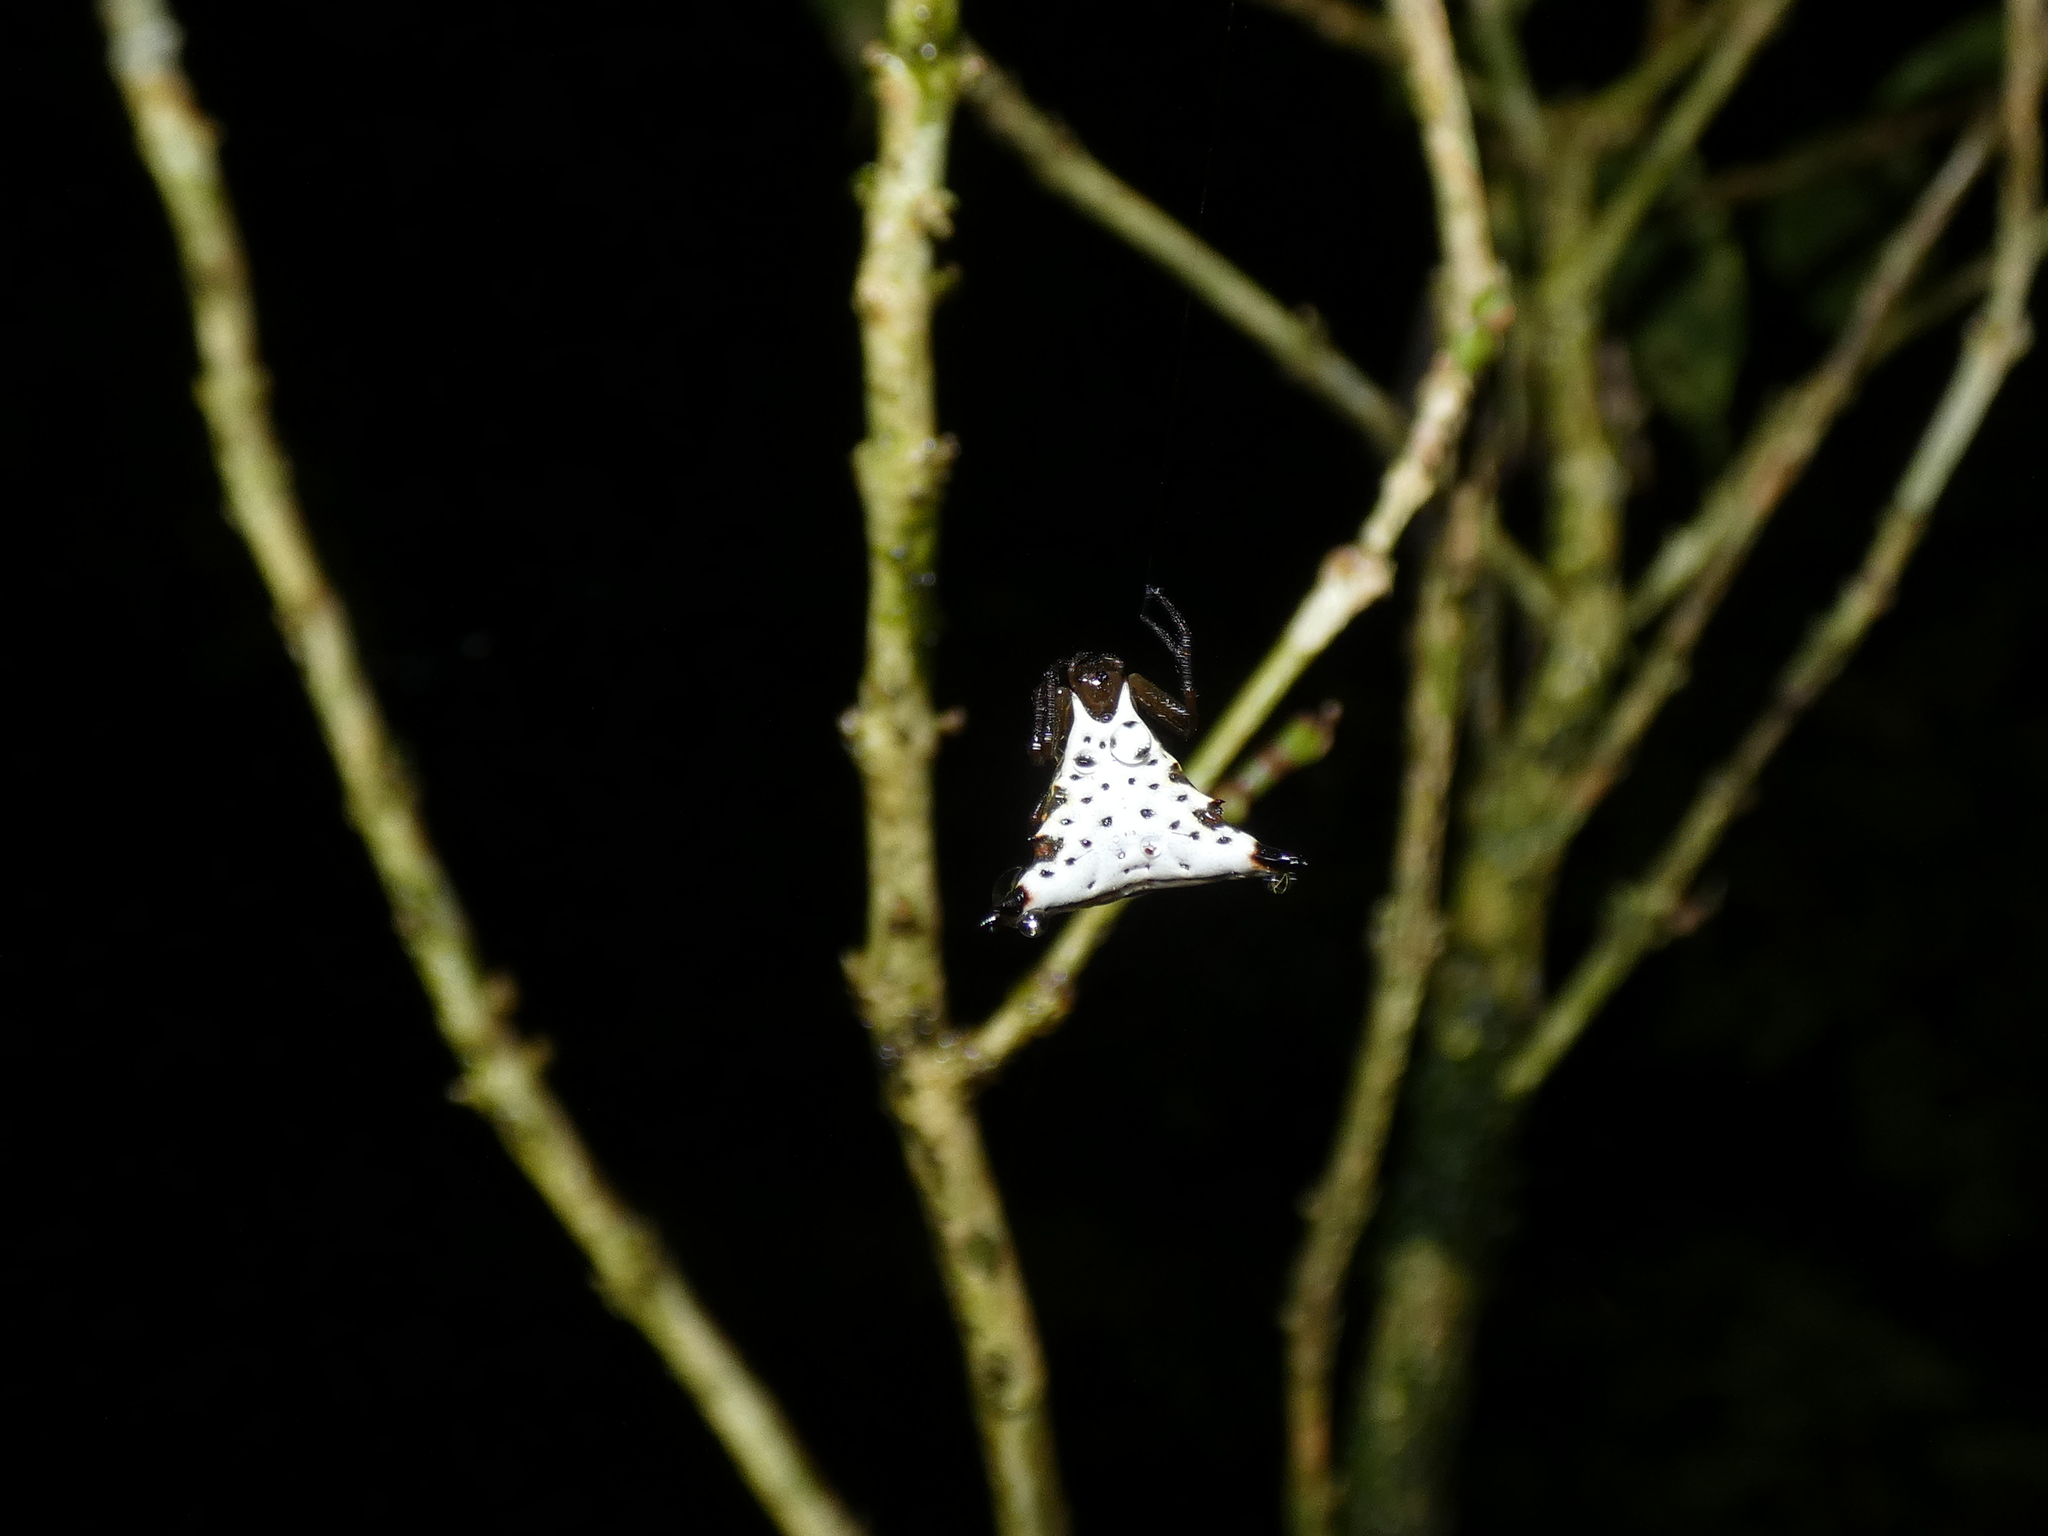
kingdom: Animalia
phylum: Arthropoda
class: Arachnida
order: Araneae
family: Araneidae
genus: Micrathena
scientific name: Micrathena lucasi
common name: Orb weavers
